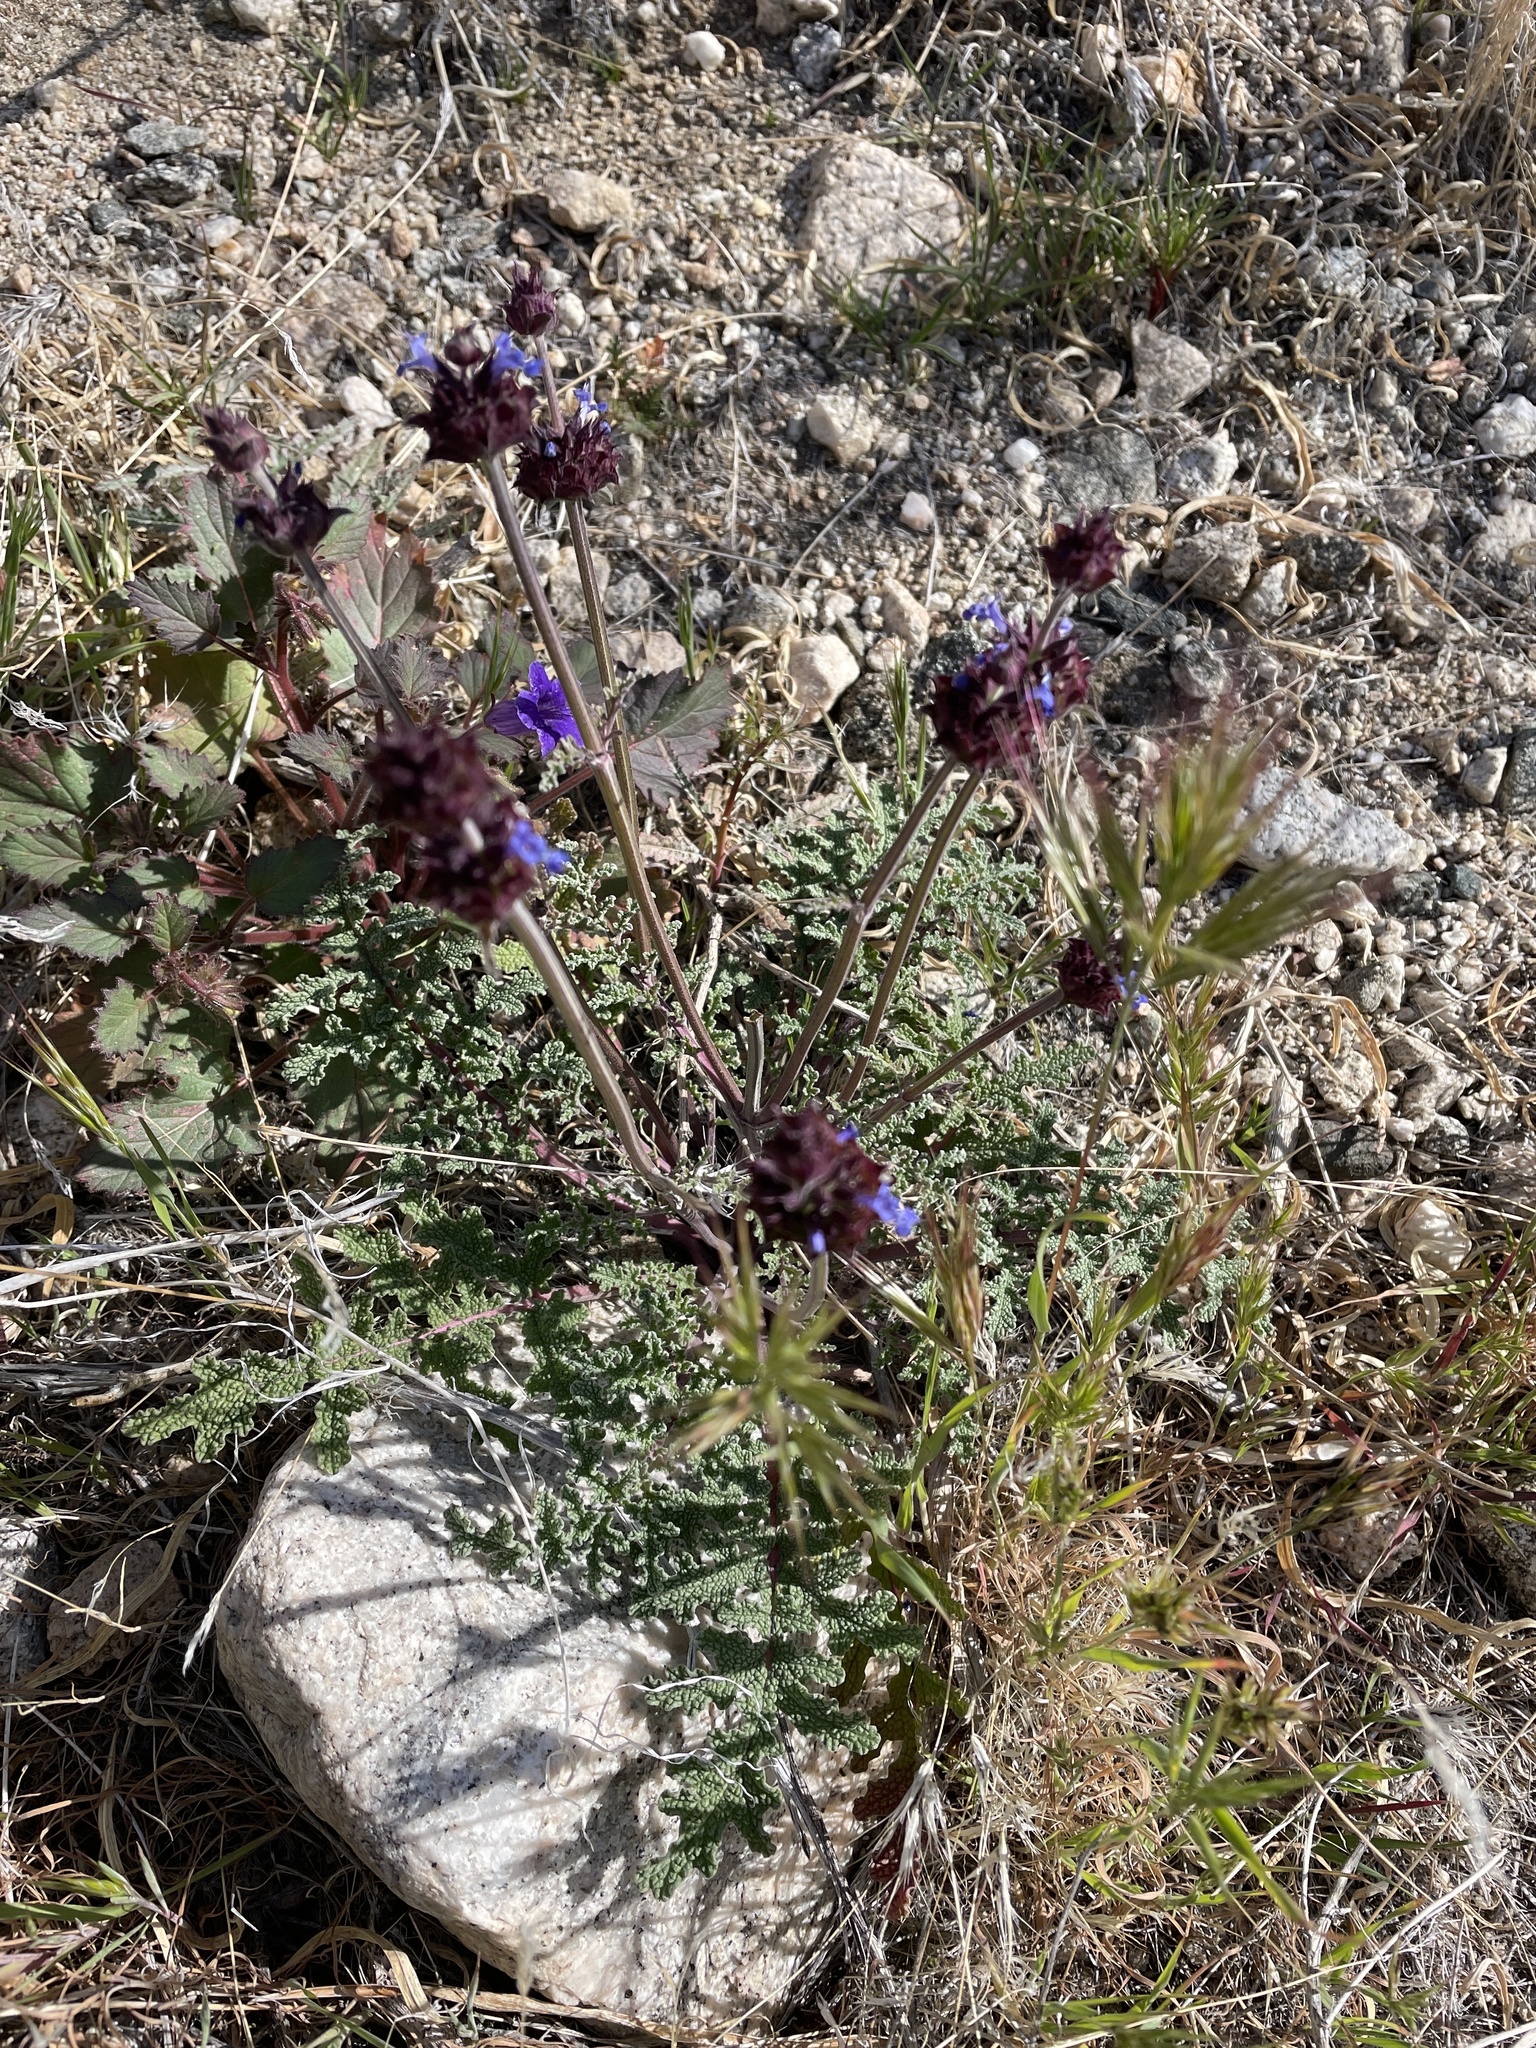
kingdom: Plantae
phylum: Tracheophyta
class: Magnoliopsida
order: Lamiales
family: Lamiaceae
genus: Salvia
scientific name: Salvia columbariae
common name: Chia
